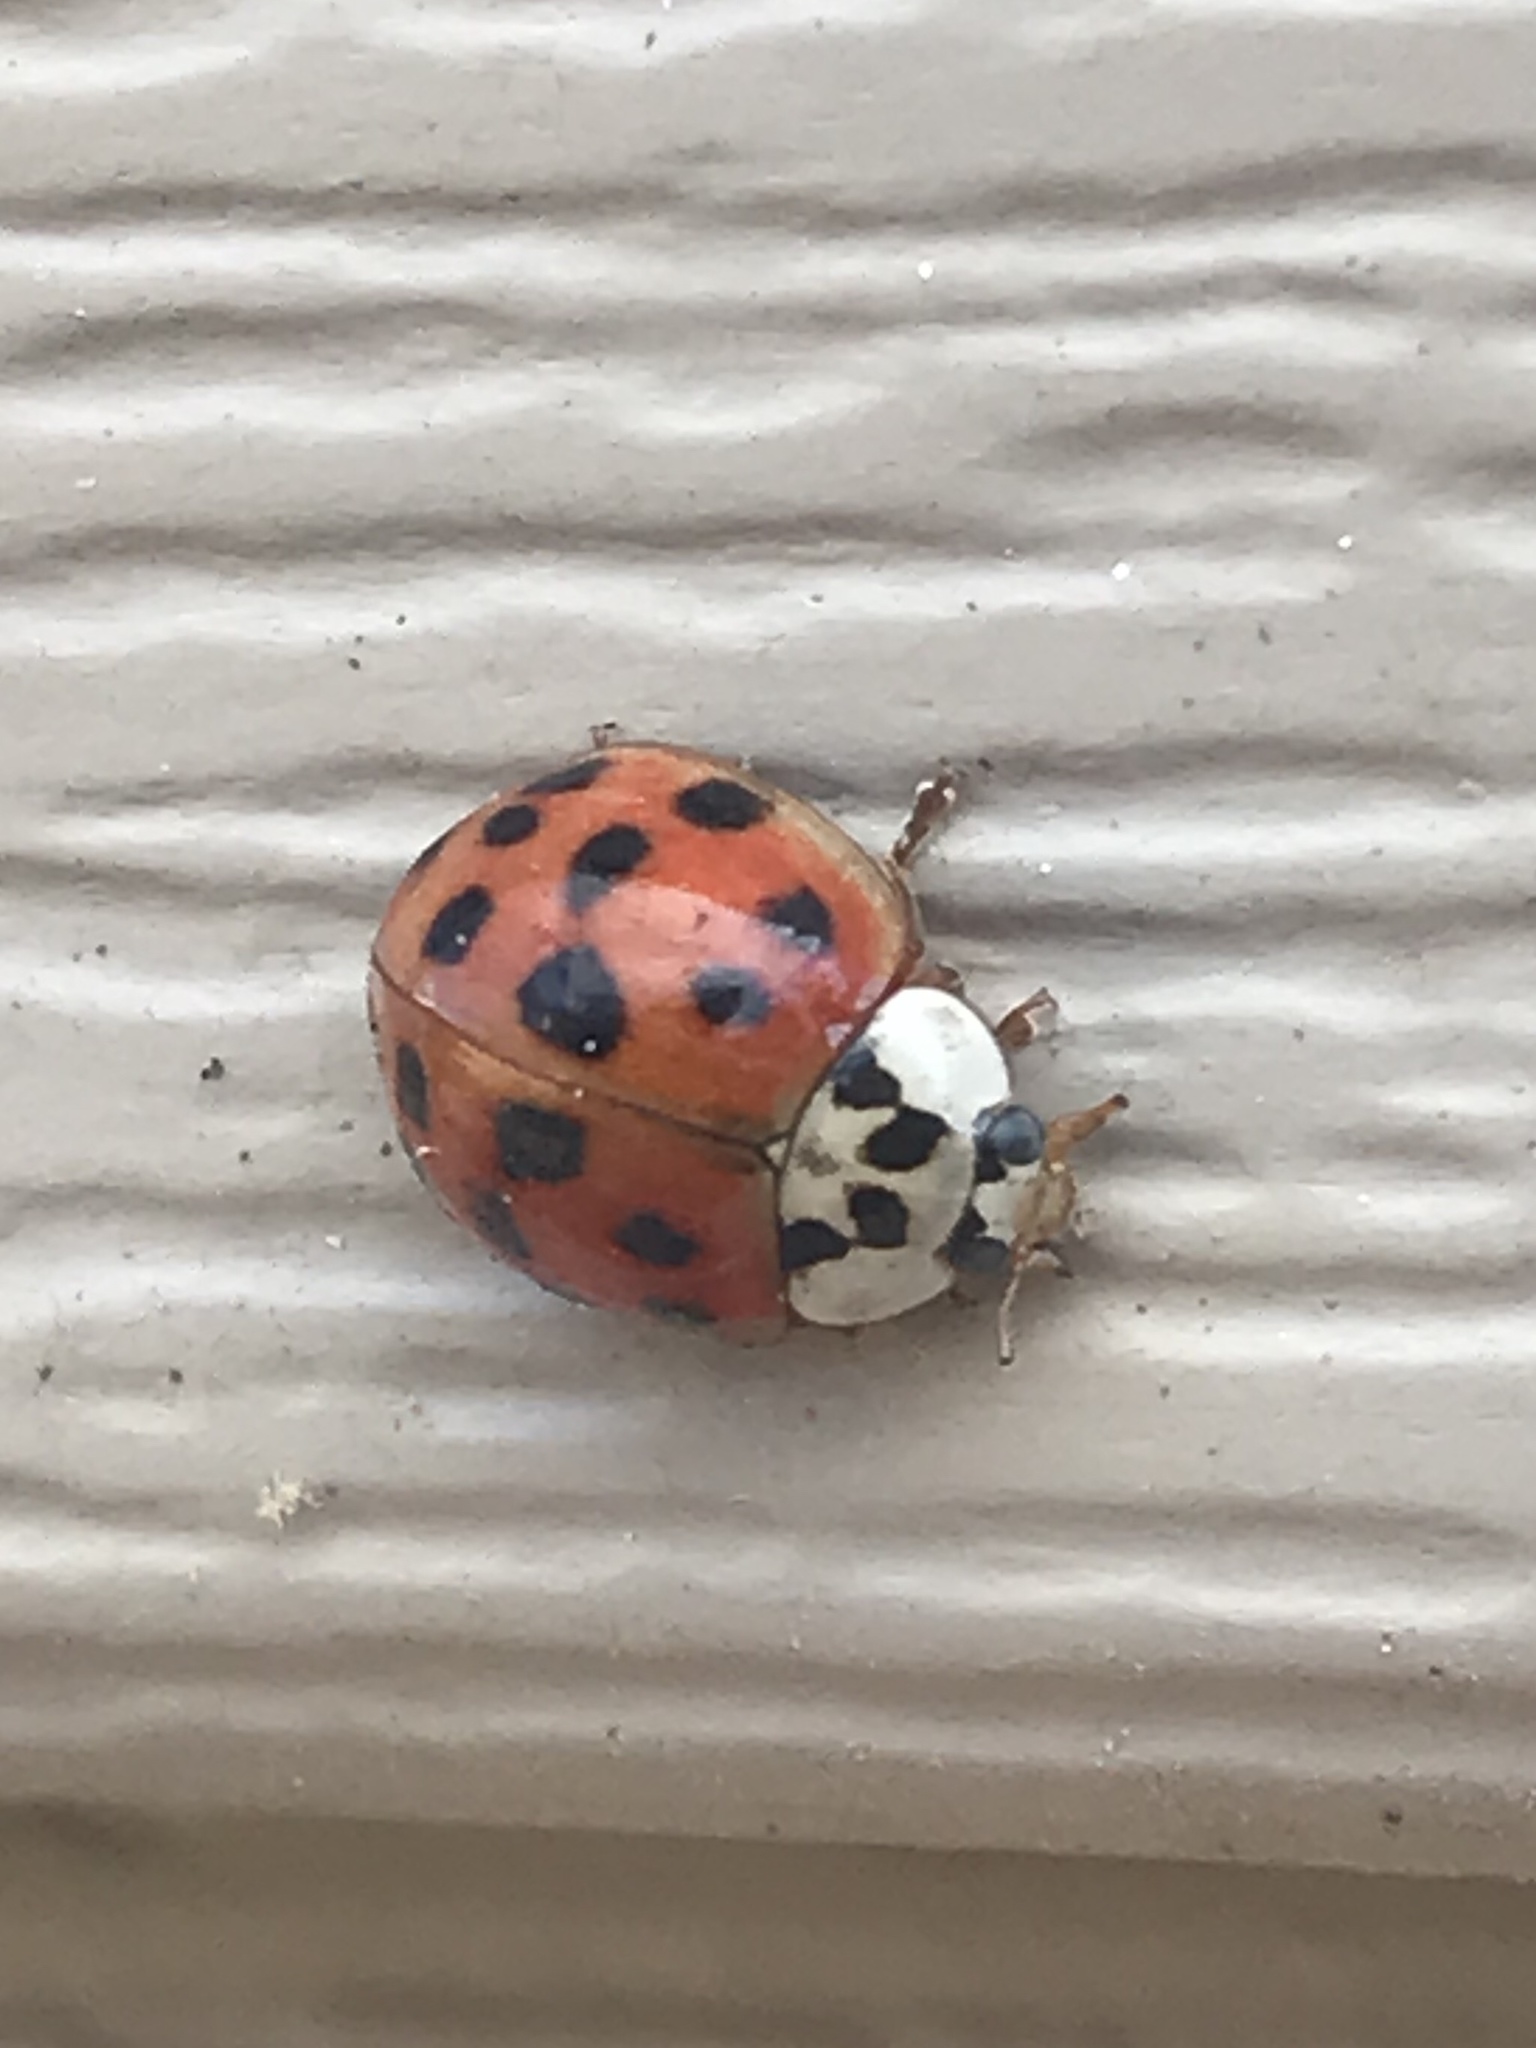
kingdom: Animalia
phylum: Arthropoda
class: Insecta
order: Coleoptera
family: Coccinellidae
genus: Harmonia
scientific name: Harmonia axyridis
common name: Harlequin ladybird
